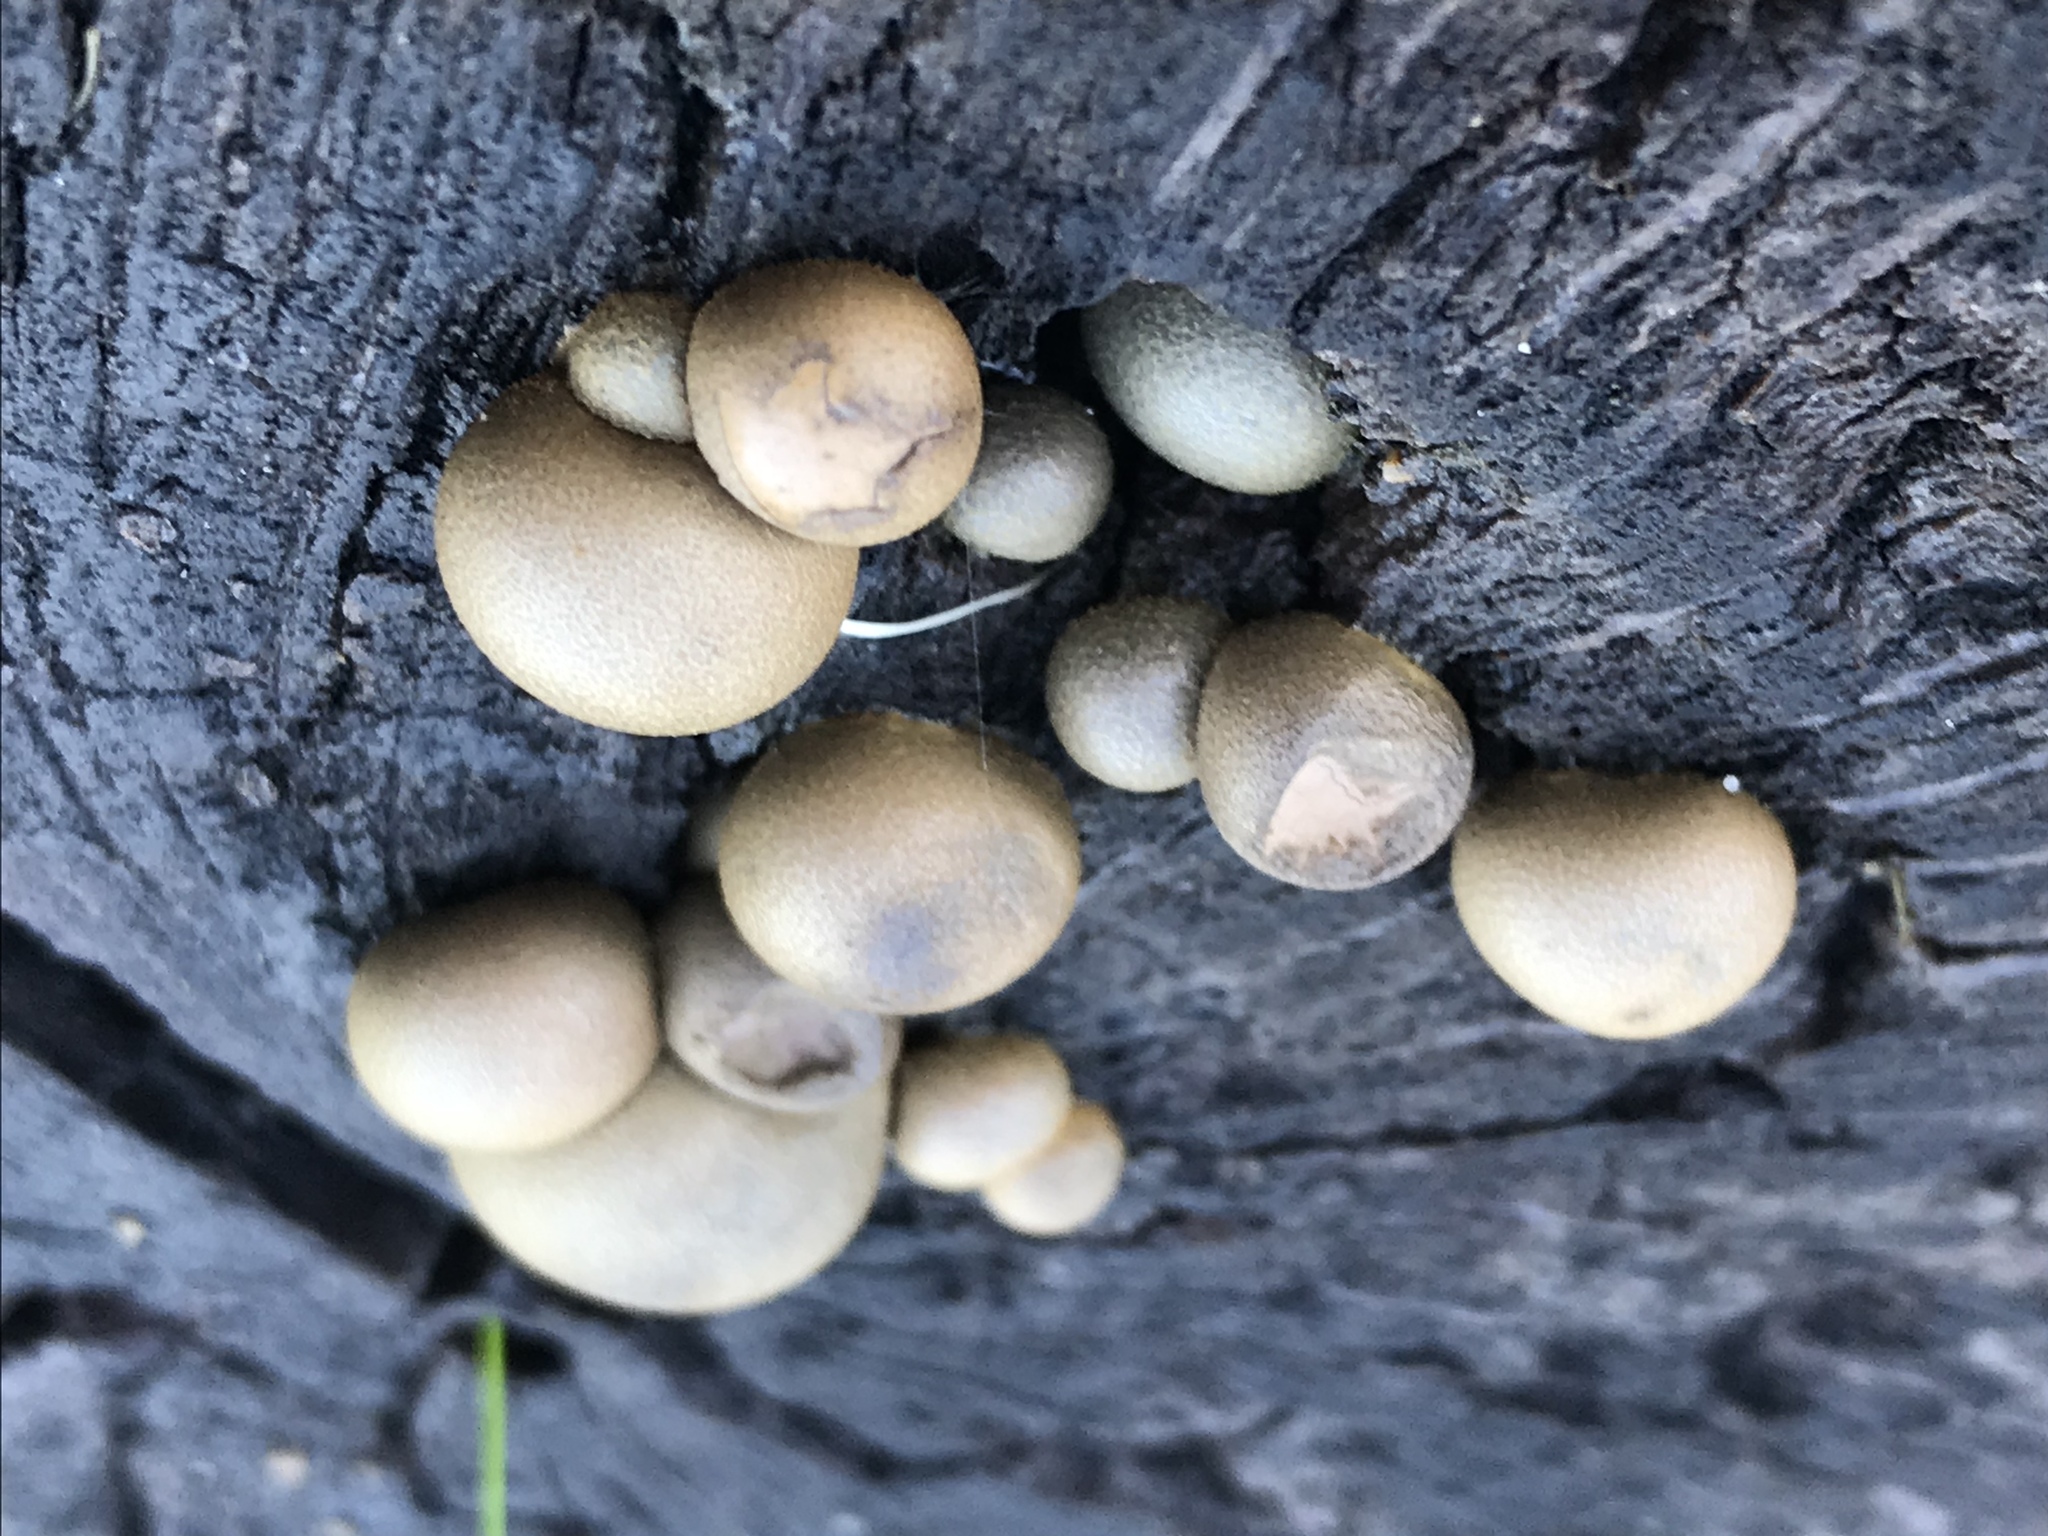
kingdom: Protozoa
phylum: Mycetozoa
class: Myxomycetes
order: Cribrariales
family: Tubiferaceae
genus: Lycogala
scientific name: Lycogala epidendrum
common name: Wolf's milk
